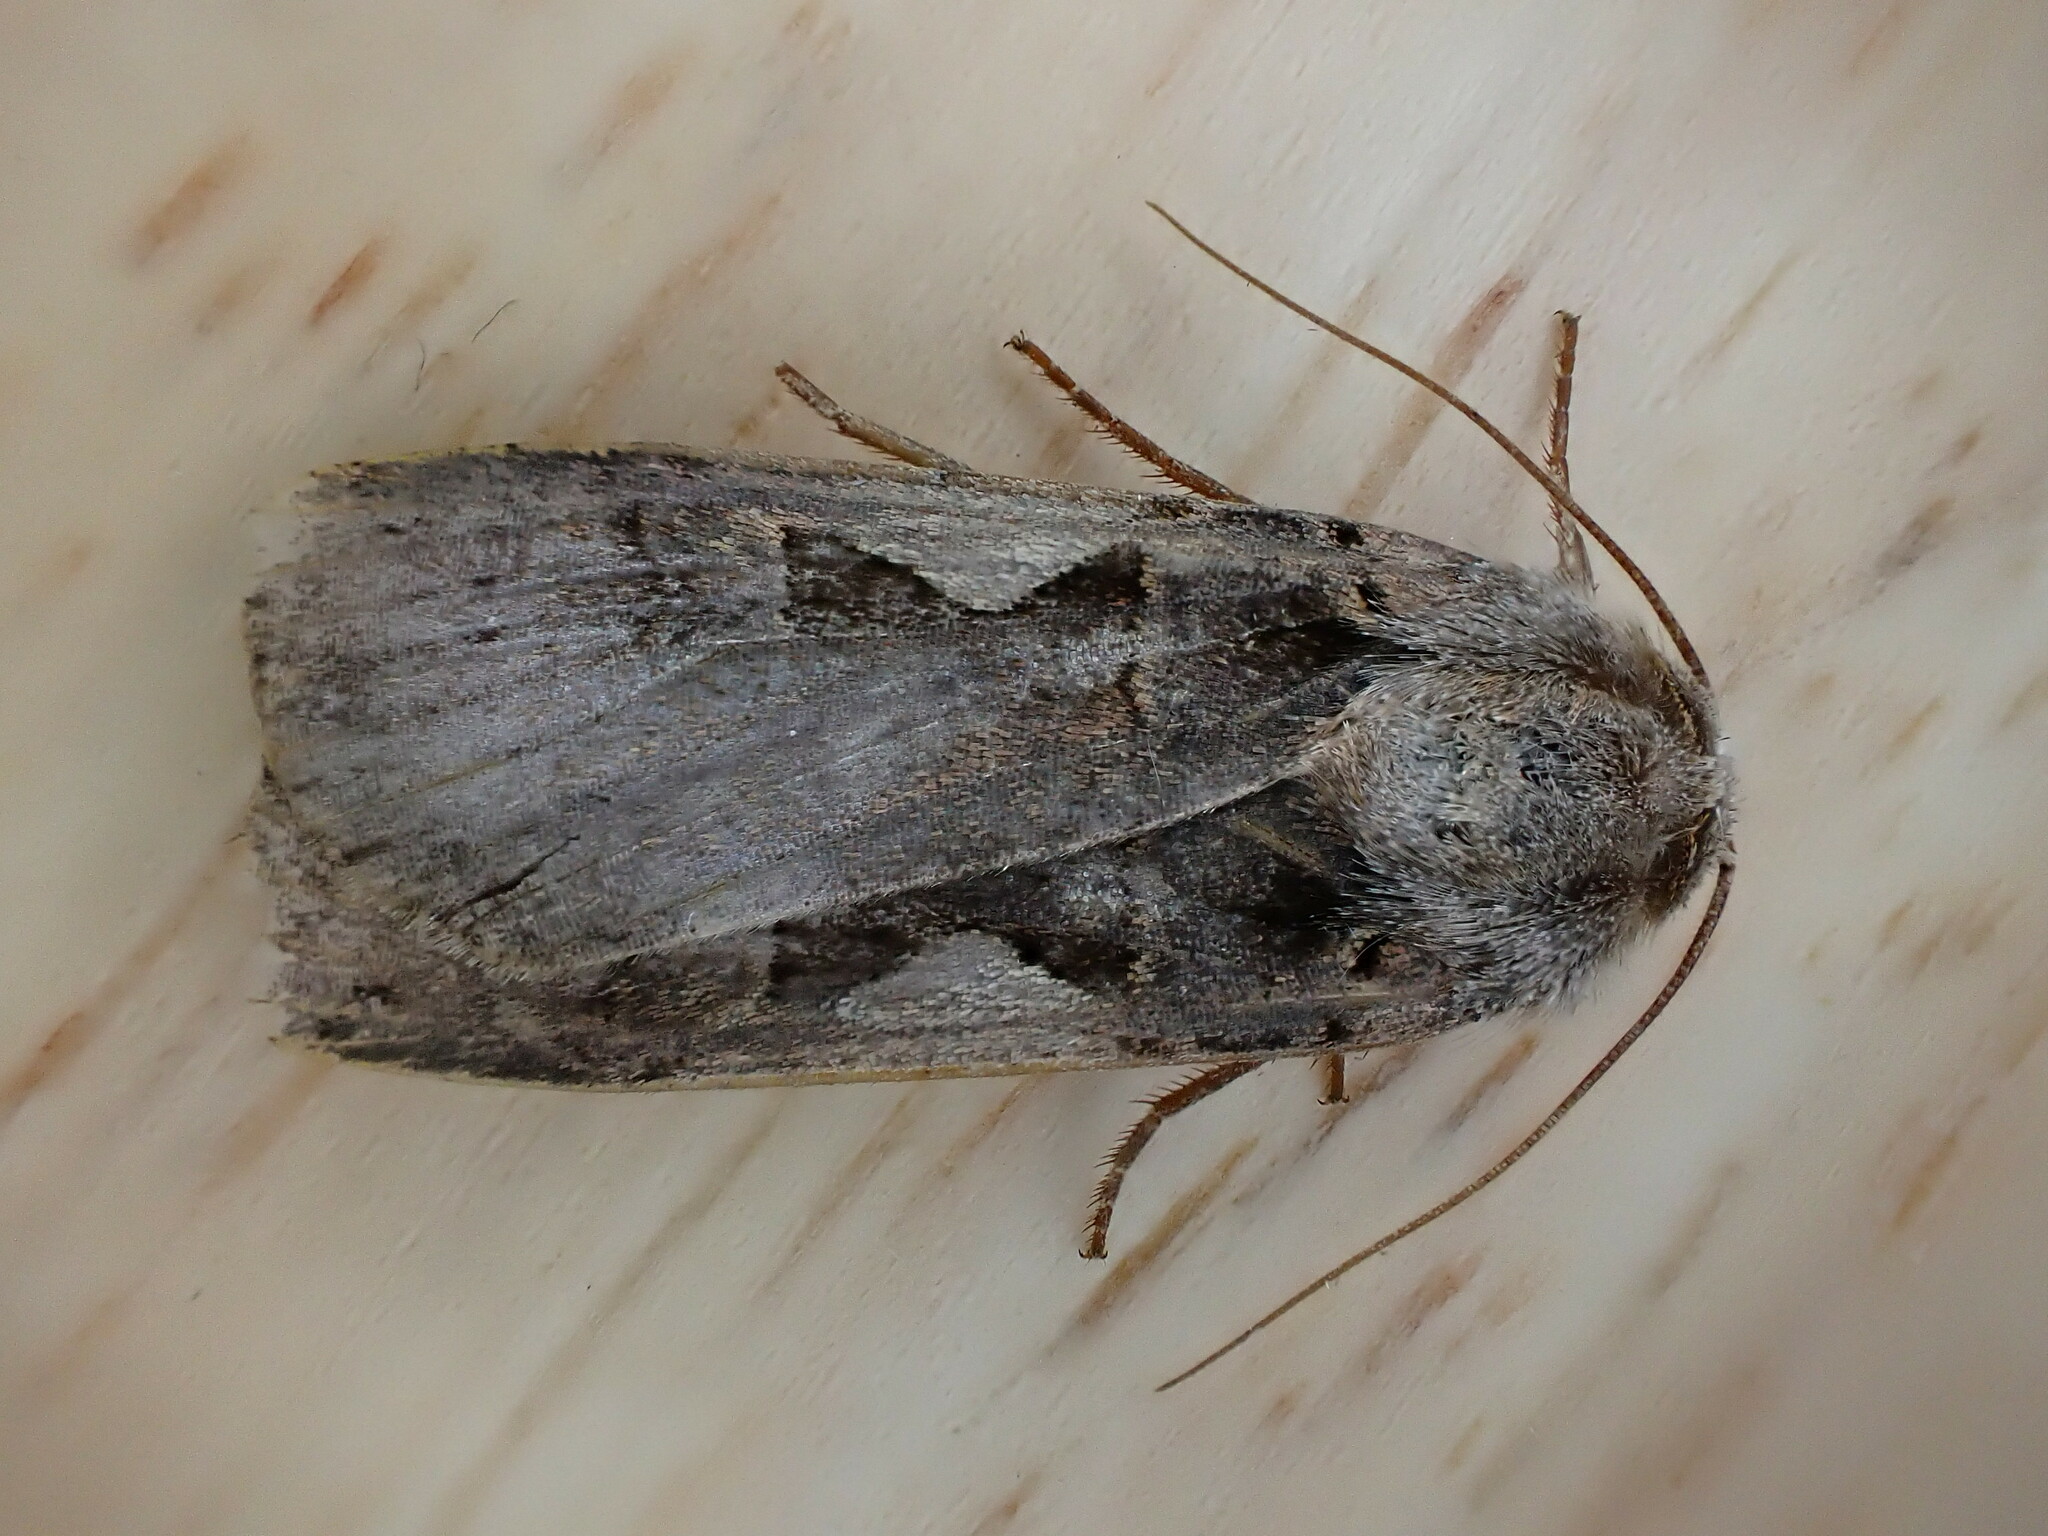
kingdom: Animalia
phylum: Arthropoda
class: Insecta
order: Lepidoptera
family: Noctuidae
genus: Xestia
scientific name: Xestia c-nigrum
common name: Setaceous hebrew character
